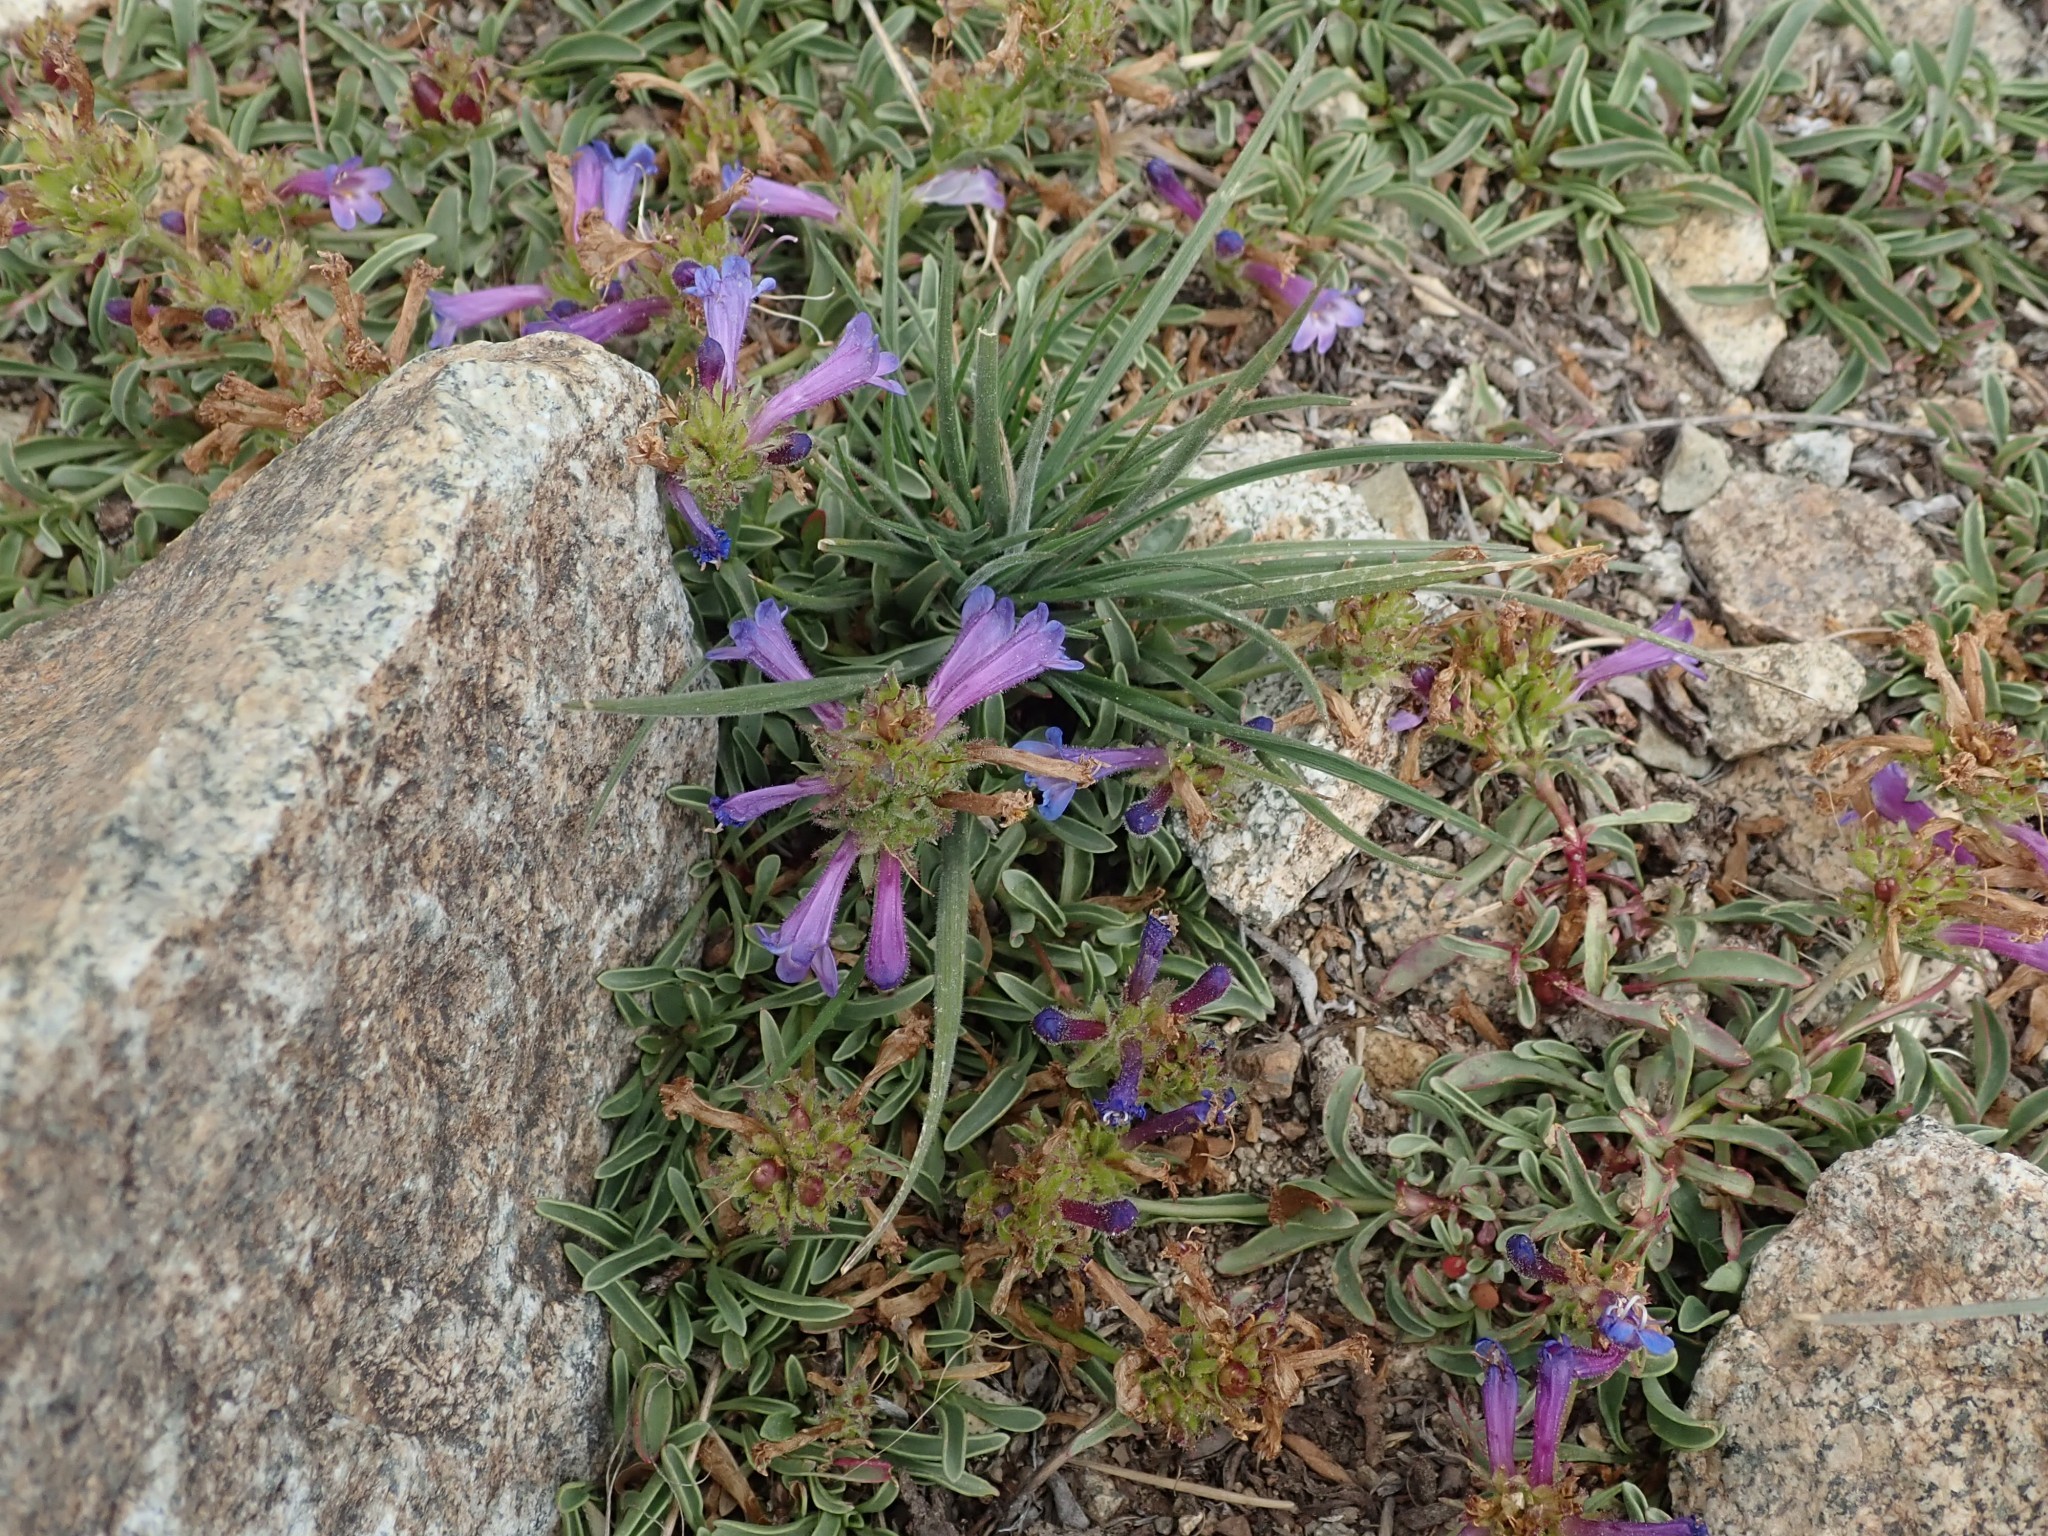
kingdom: Plantae
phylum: Tracheophyta
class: Magnoliopsida
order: Lamiales
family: Plantaginaceae
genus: Penstemon
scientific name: Penstemon heterodoxus
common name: Sierran penstemon
